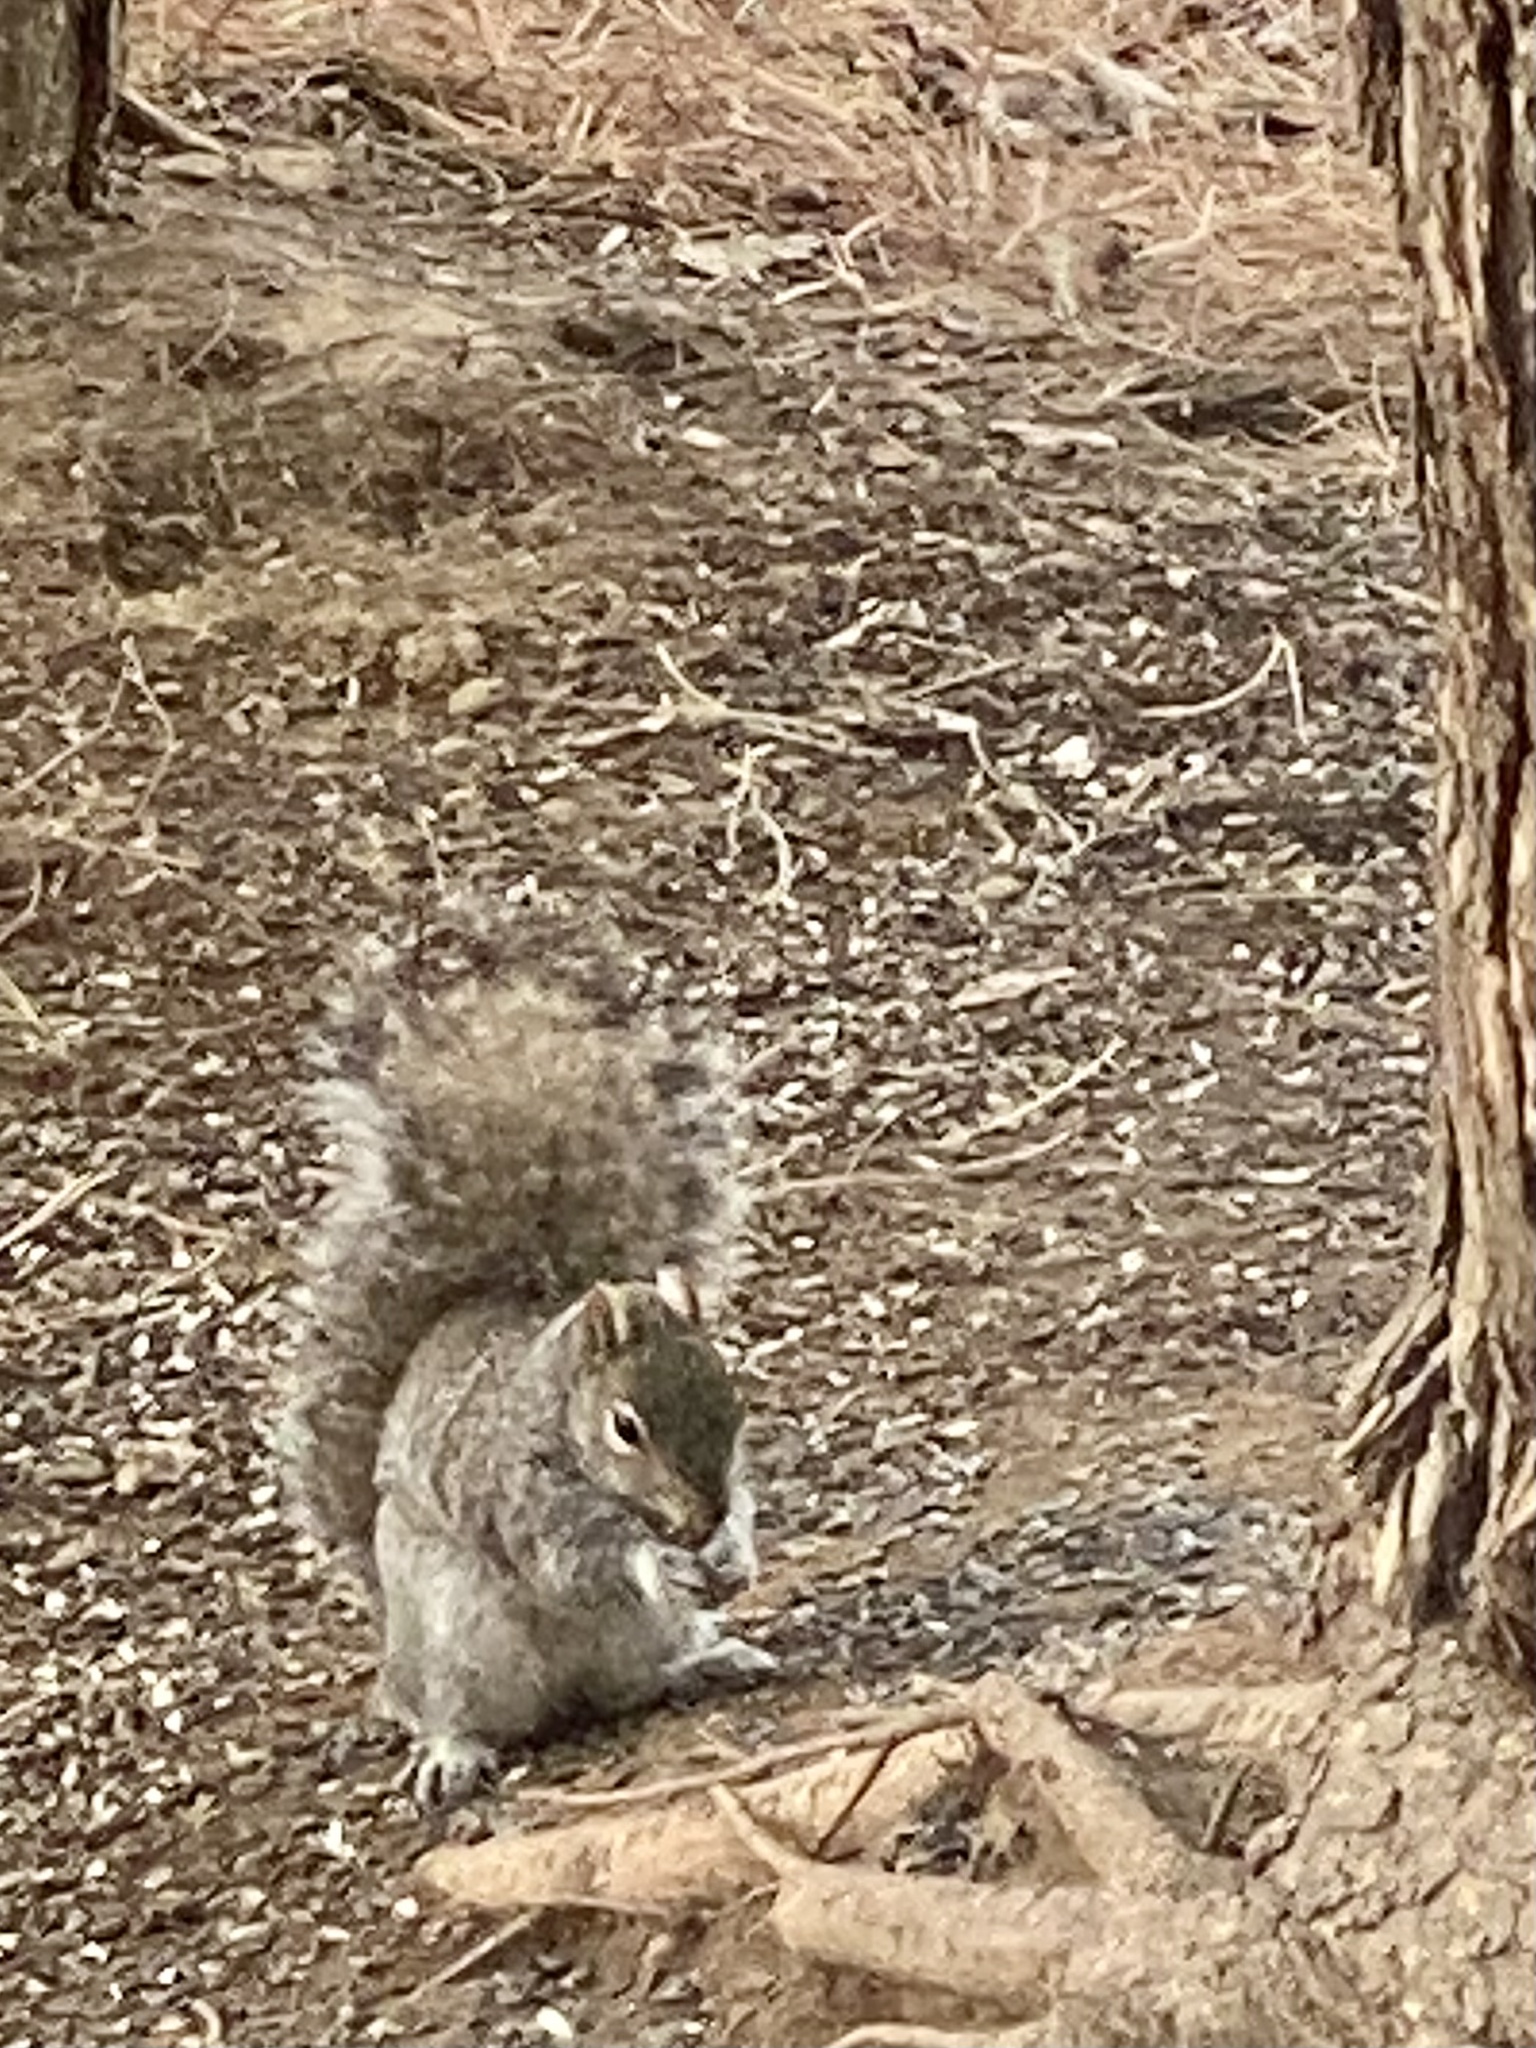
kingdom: Animalia
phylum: Chordata
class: Mammalia
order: Rodentia
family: Sciuridae
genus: Sciurus
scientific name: Sciurus carolinensis
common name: Eastern gray squirrel
